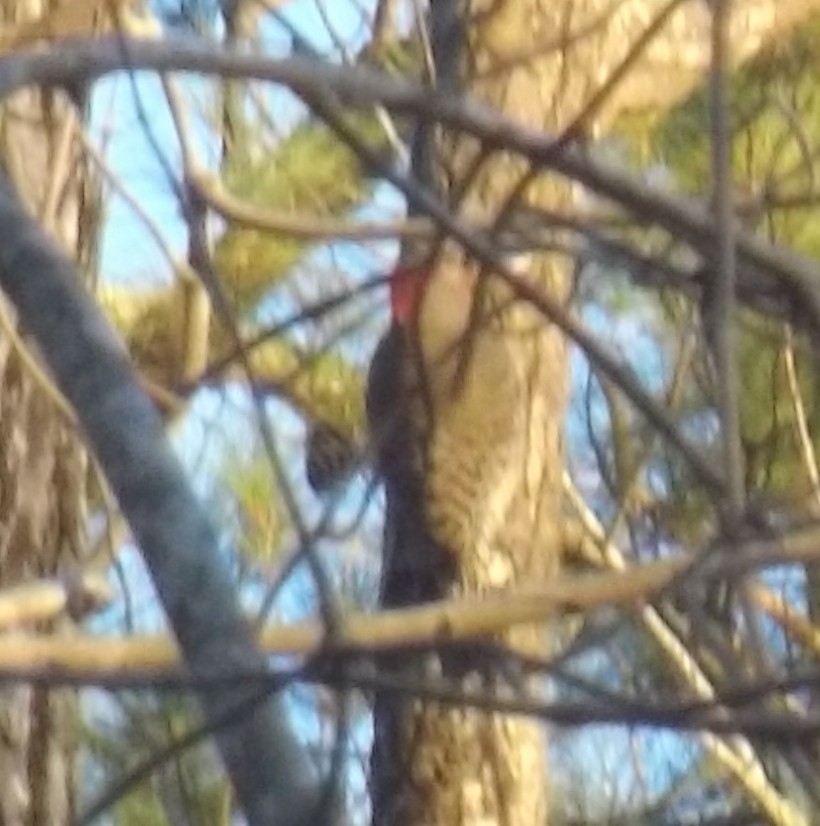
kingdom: Animalia
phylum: Chordata
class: Aves
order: Piciformes
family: Picidae
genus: Colaptes
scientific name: Colaptes auratus
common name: Northern flicker
